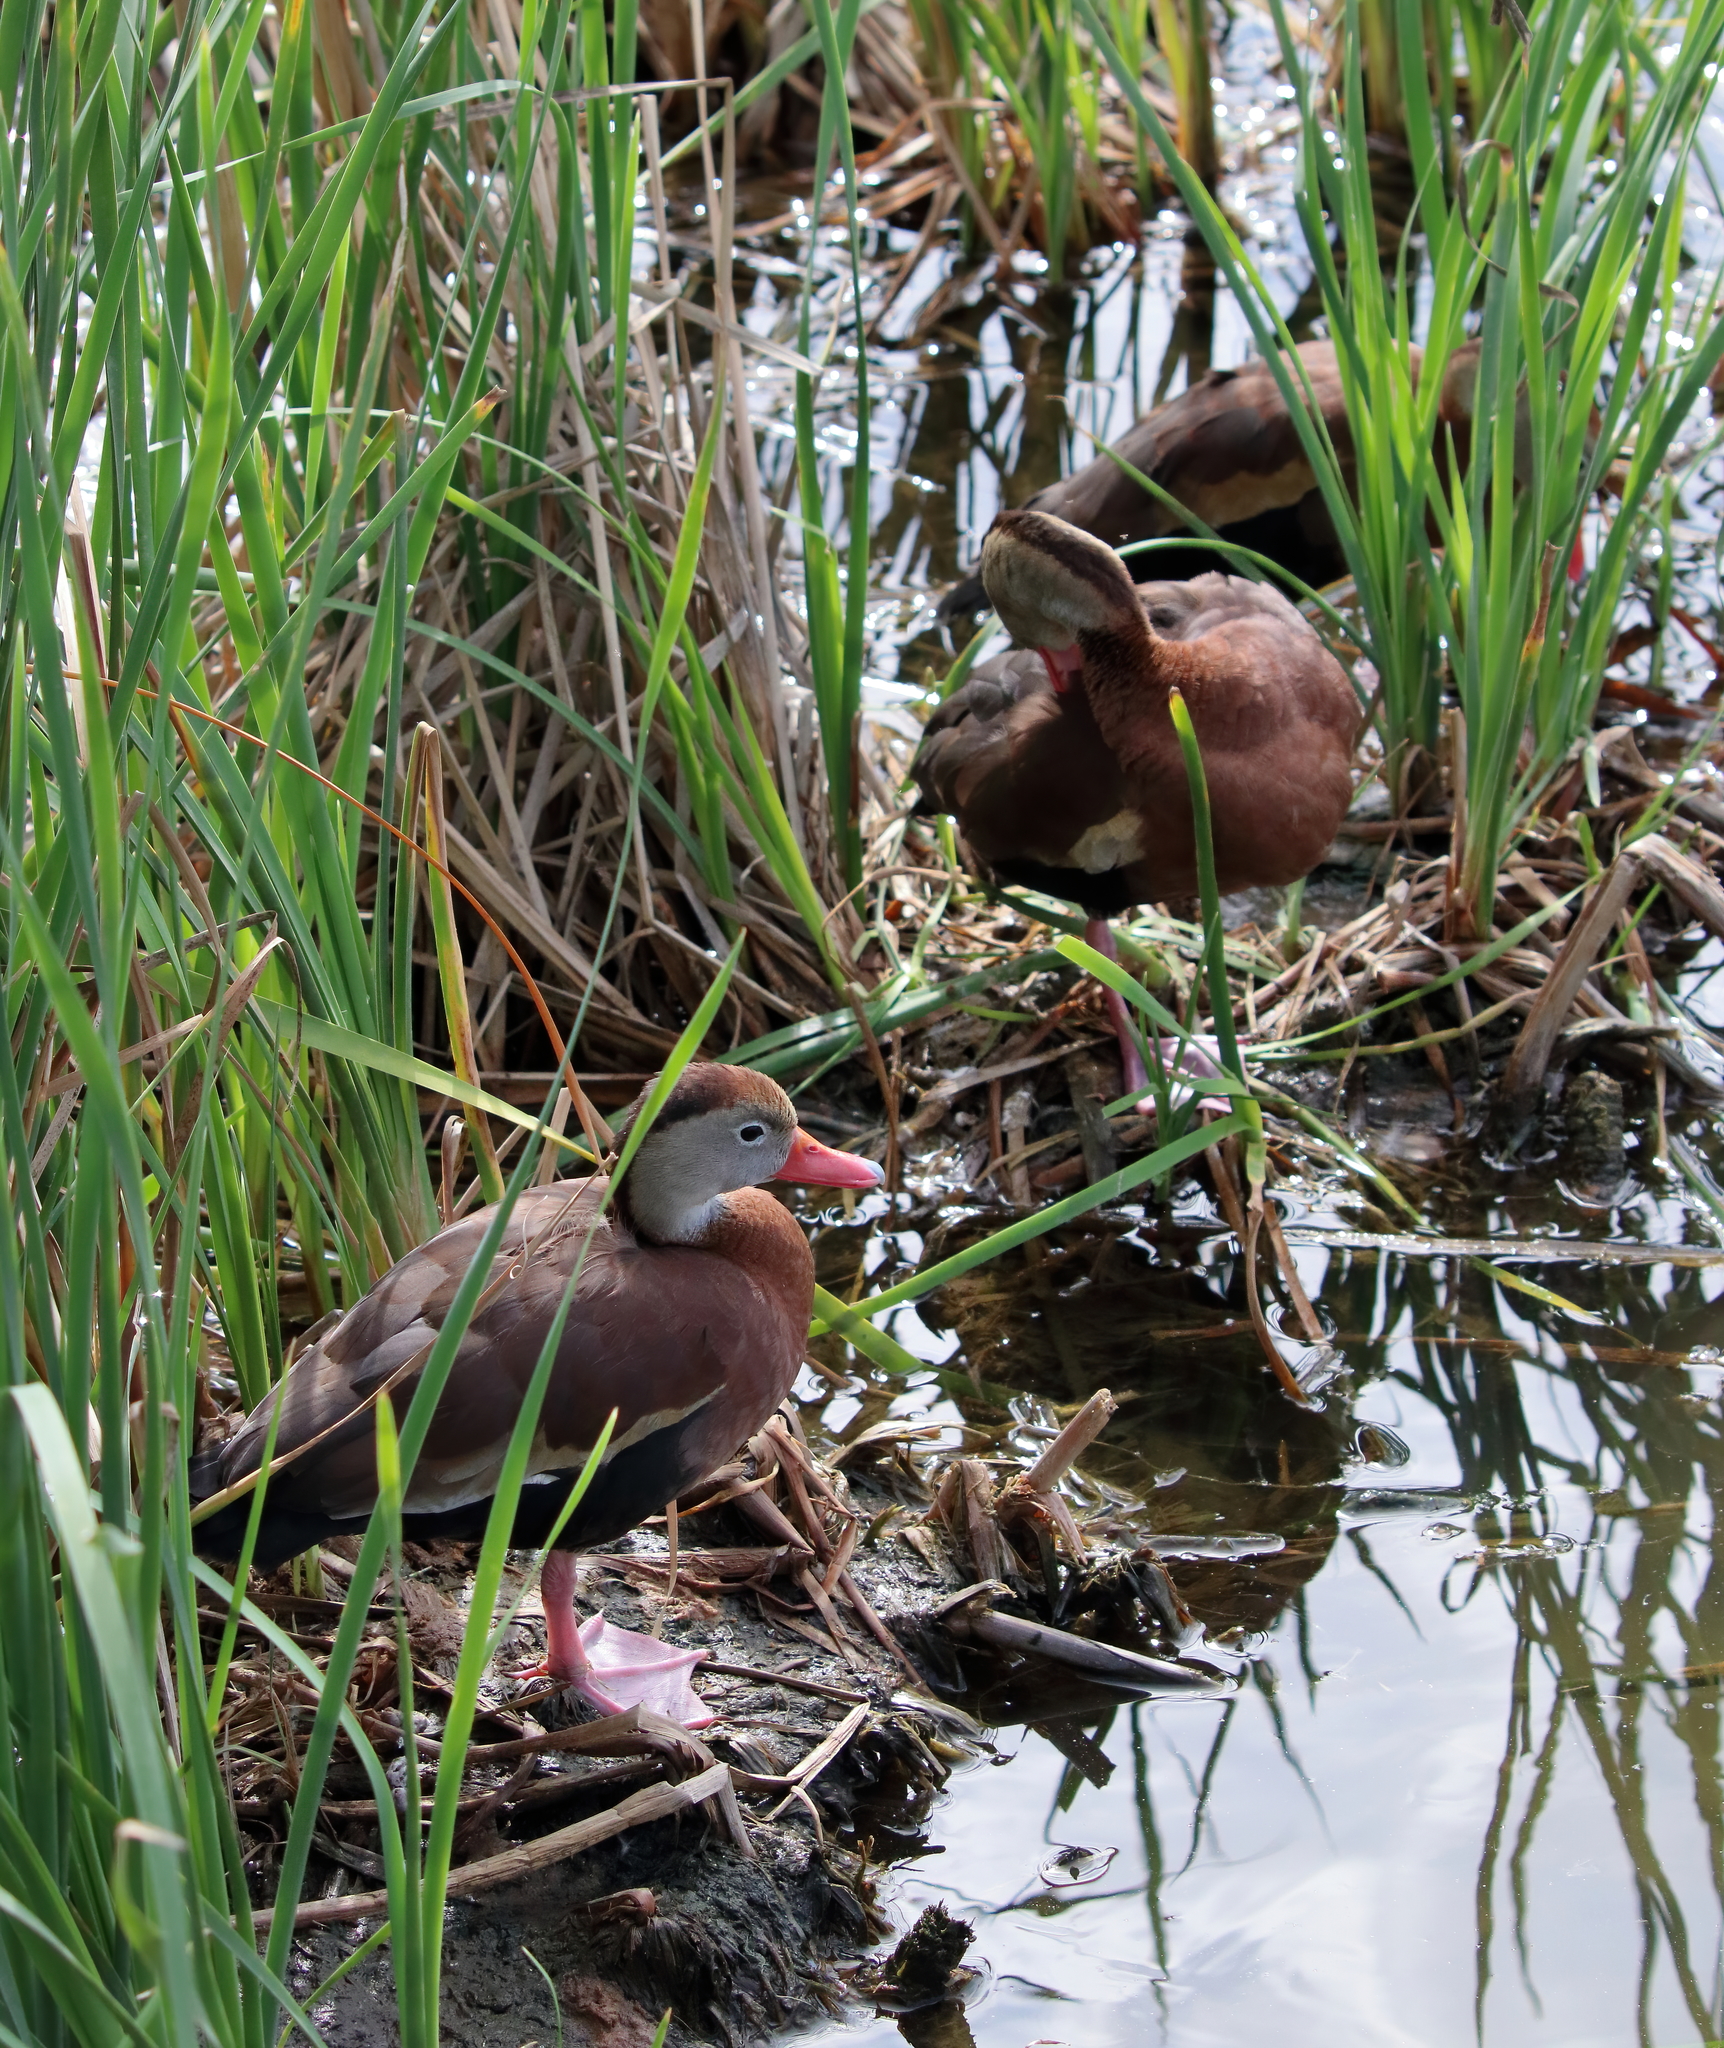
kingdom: Animalia
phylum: Chordata
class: Aves
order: Anseriformes
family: Anatidae
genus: Dendrocygna
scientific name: Dendrocygna autumnalis
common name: Black-bellied whistling duck
